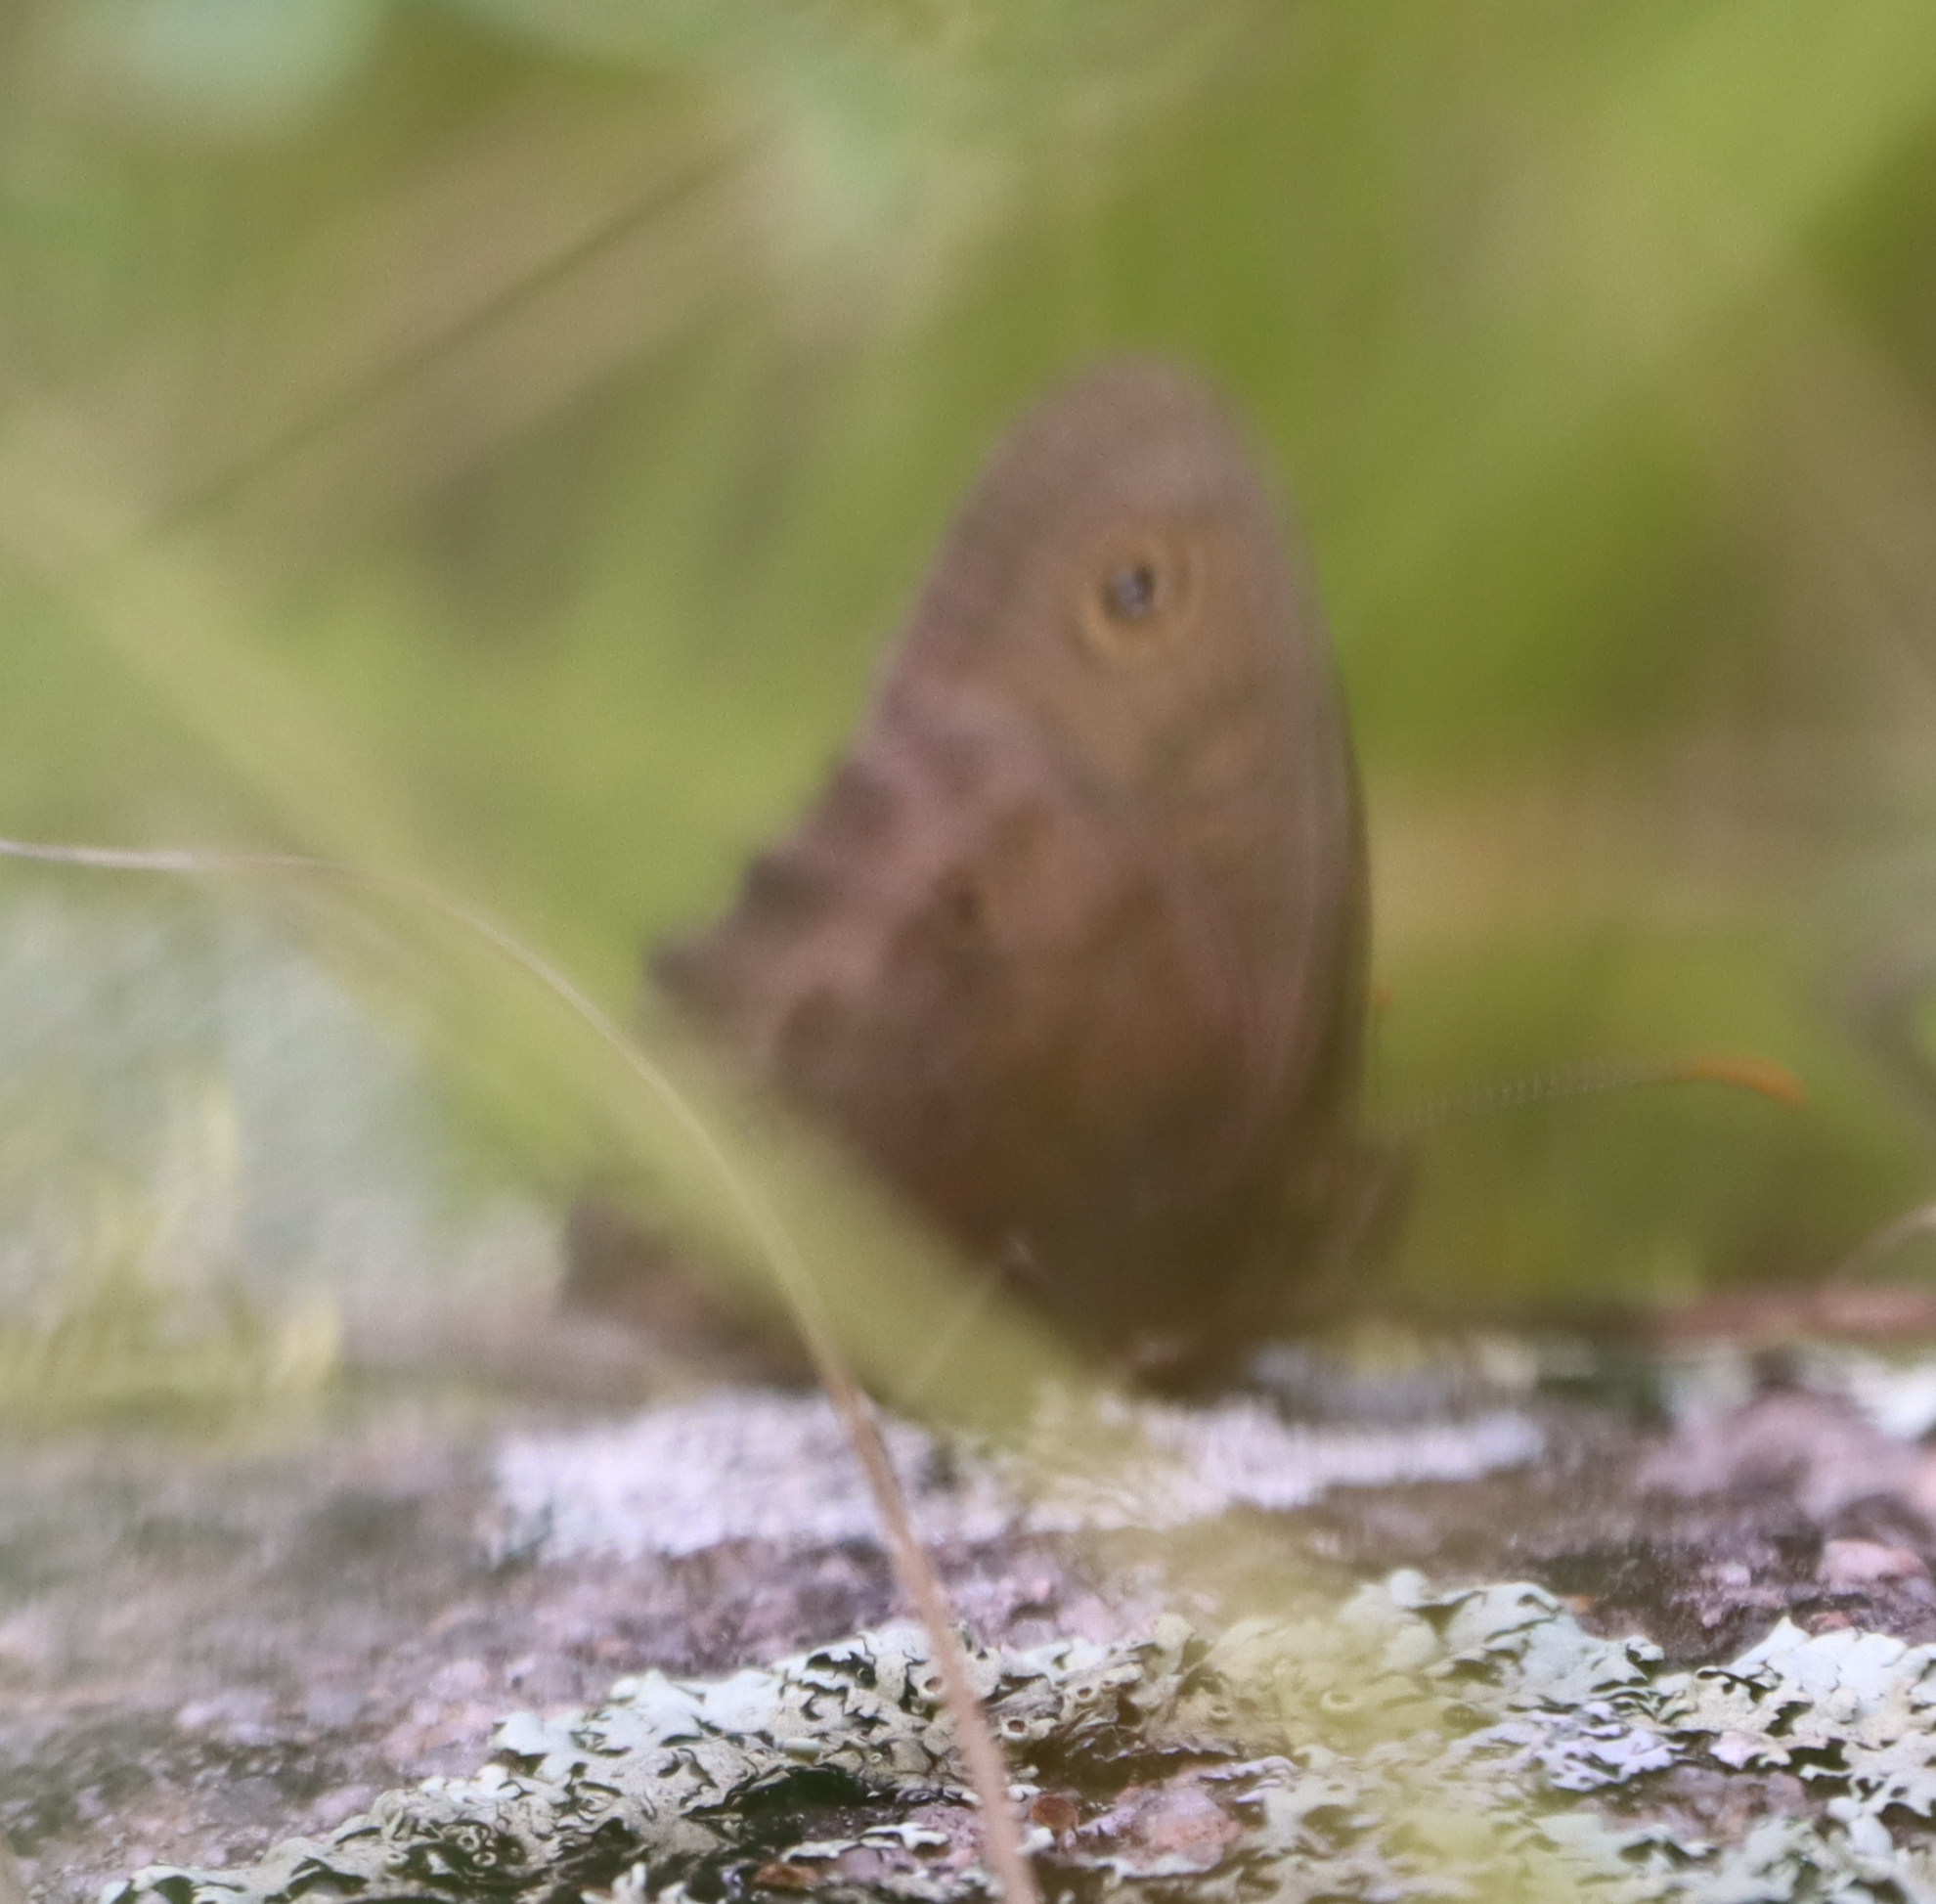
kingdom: Animalia
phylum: Arthropoda
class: Insecta
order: Lepidoptera
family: Nymphalidae
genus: Cercyonis
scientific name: Cercyonis pegala
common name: Common wood-nymph
